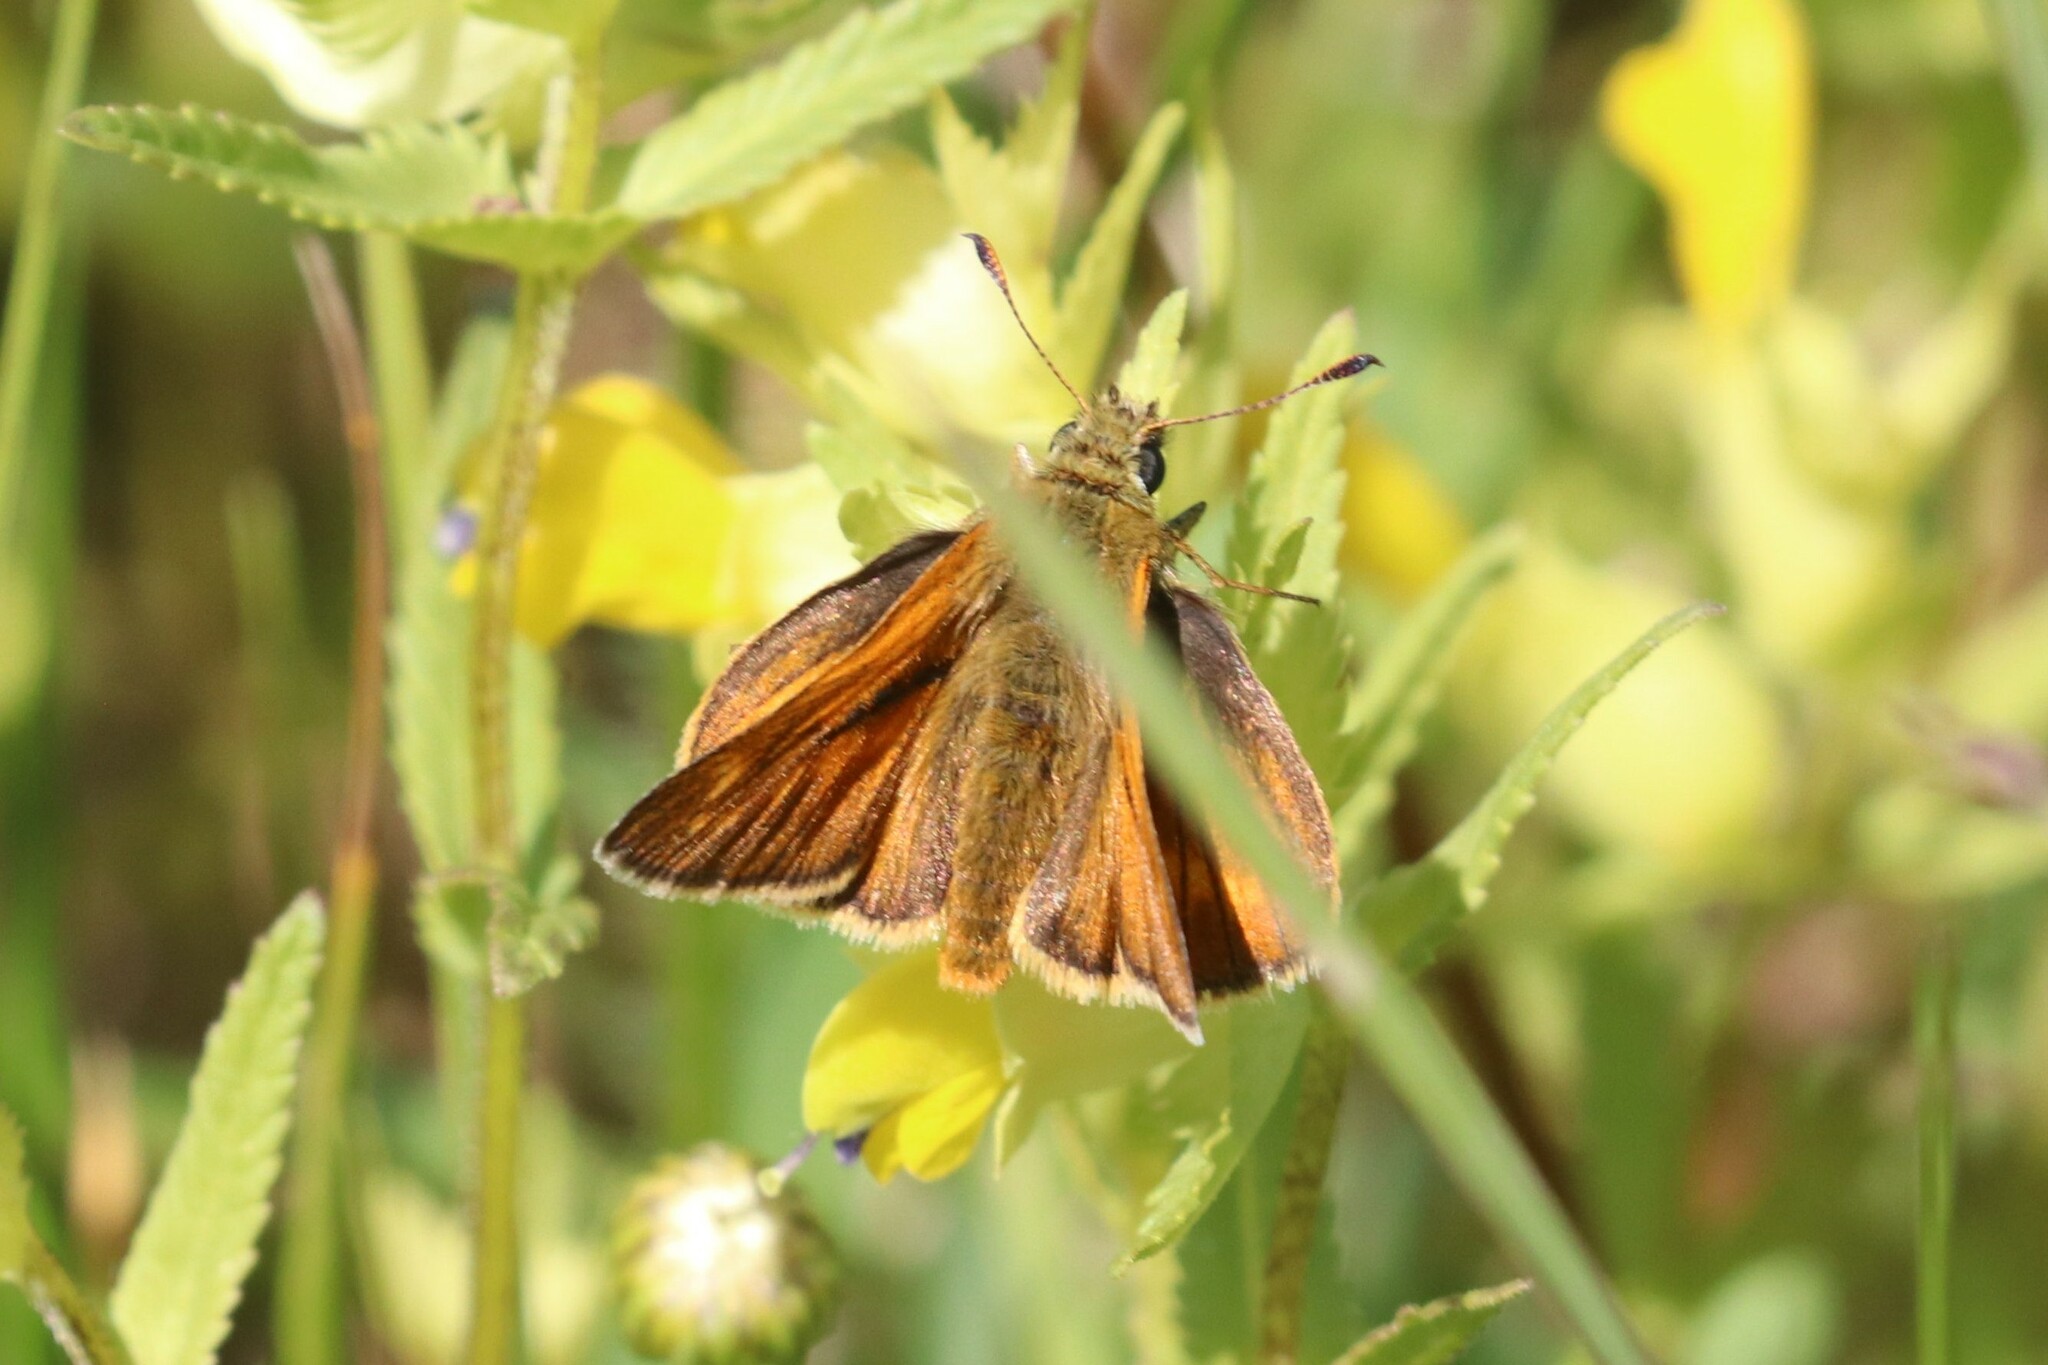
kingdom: Animalia
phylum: Arthropoda
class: Insecta
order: Lepidoptera
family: Hesperiidae
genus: Ochlodes
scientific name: Ochlodes venata
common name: Large skipper
